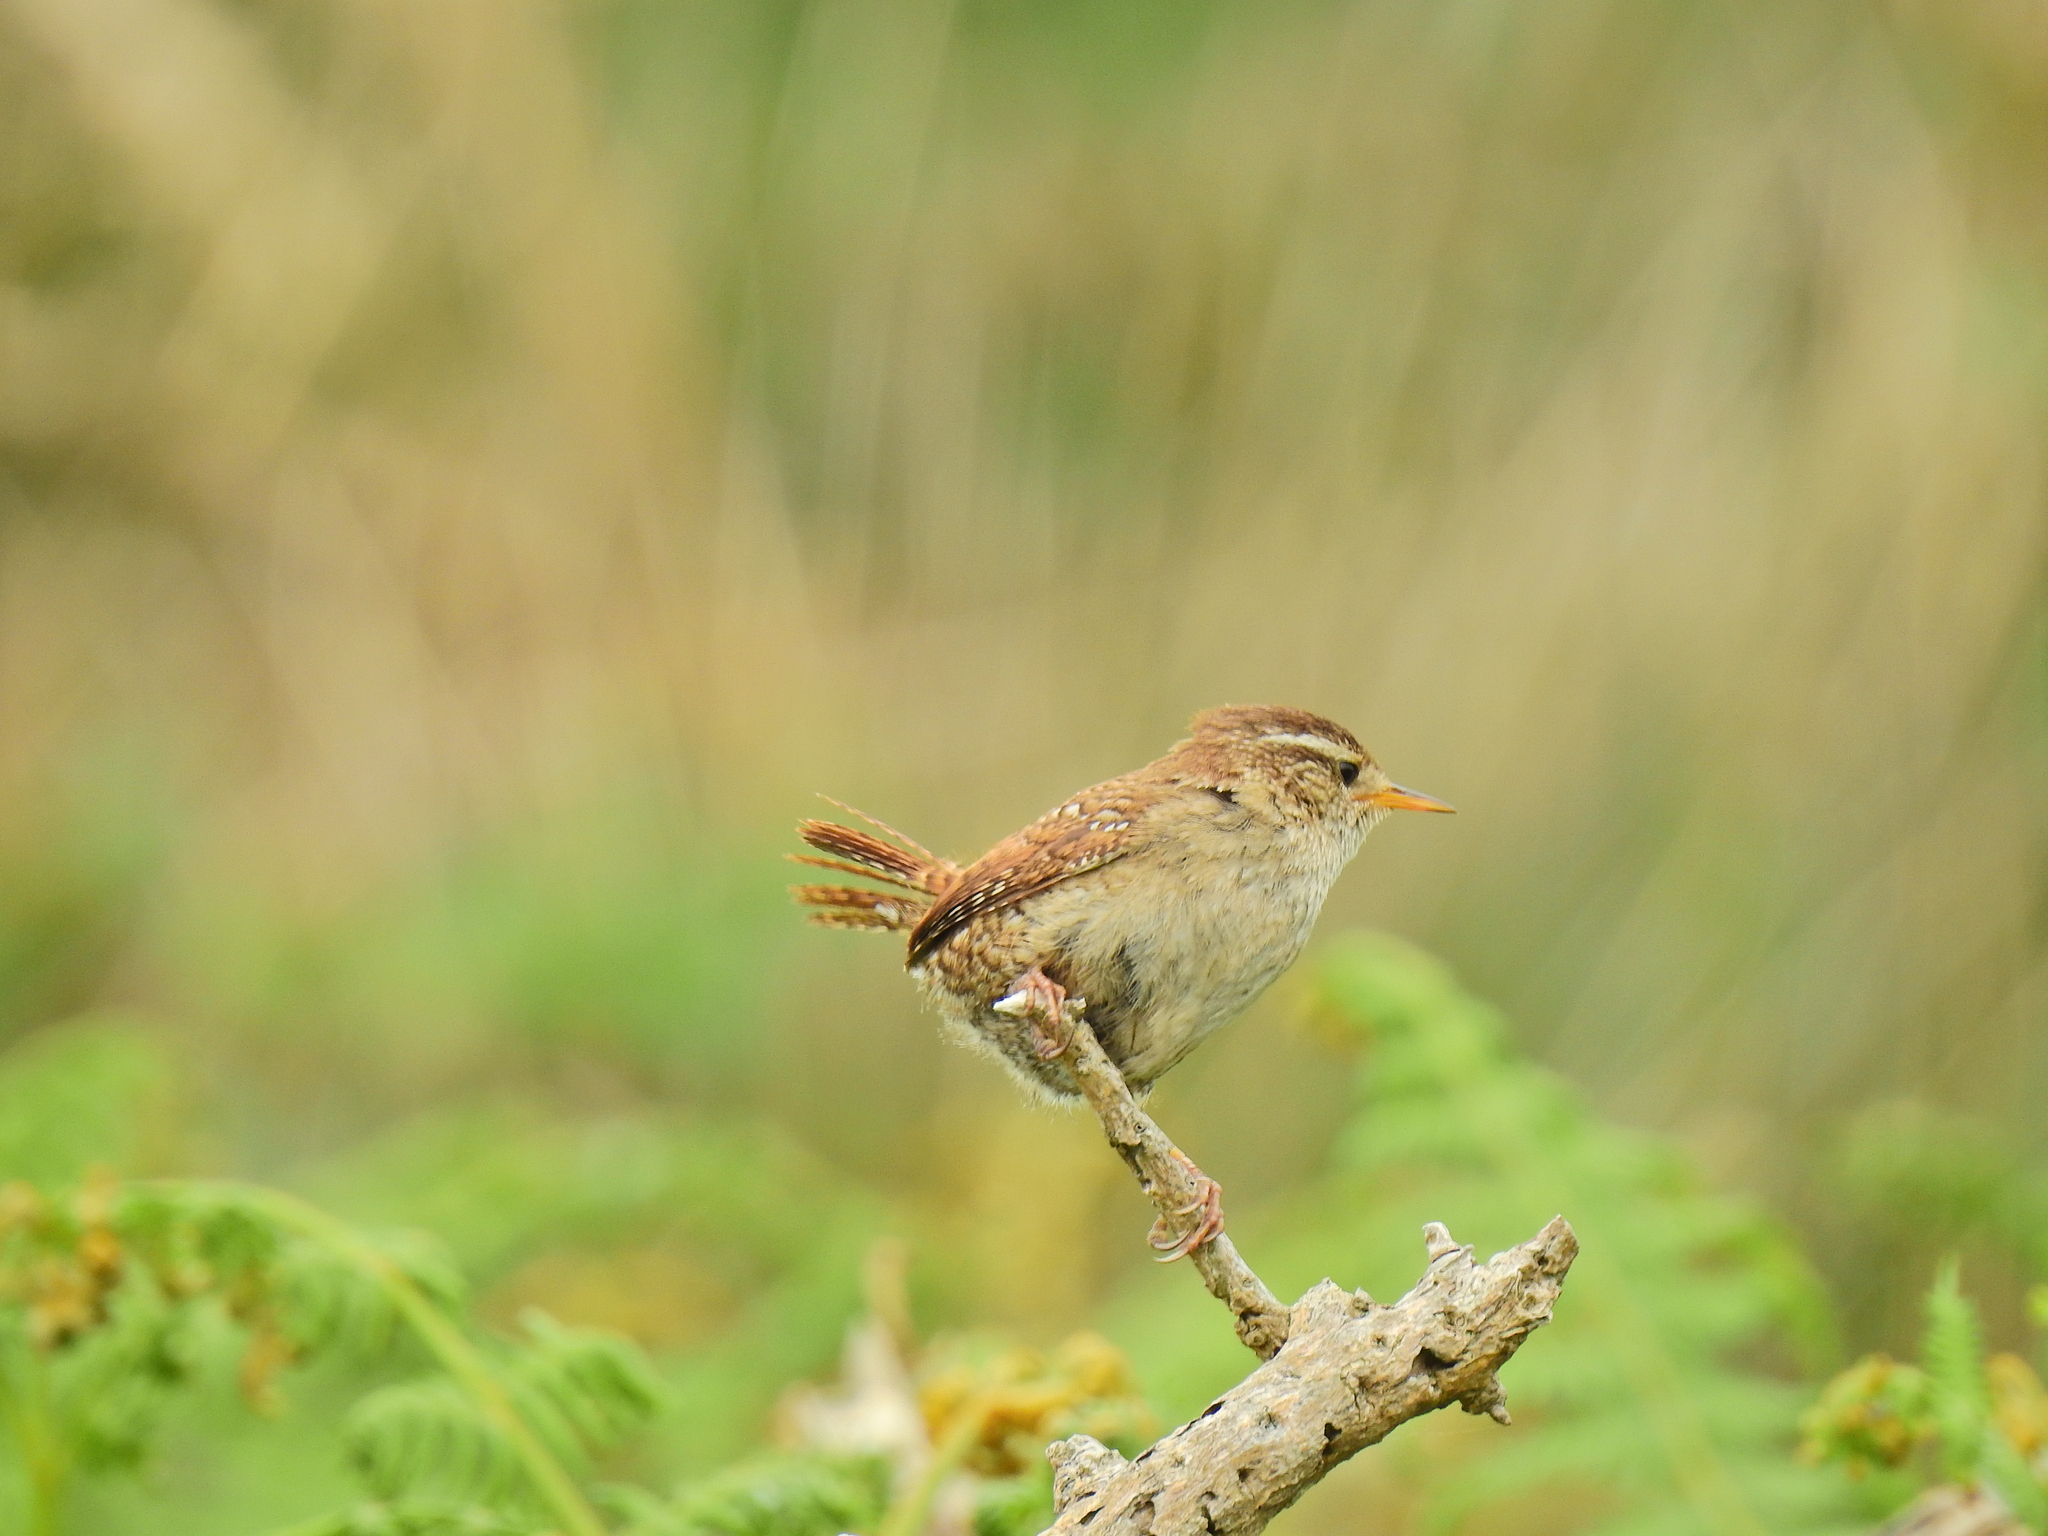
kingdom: Animalia
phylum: Chordata
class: Aves
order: Passeriformes
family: Troglodytidae
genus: Troglodytes
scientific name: Troglodytes troglodytes
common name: Eurasian wren
